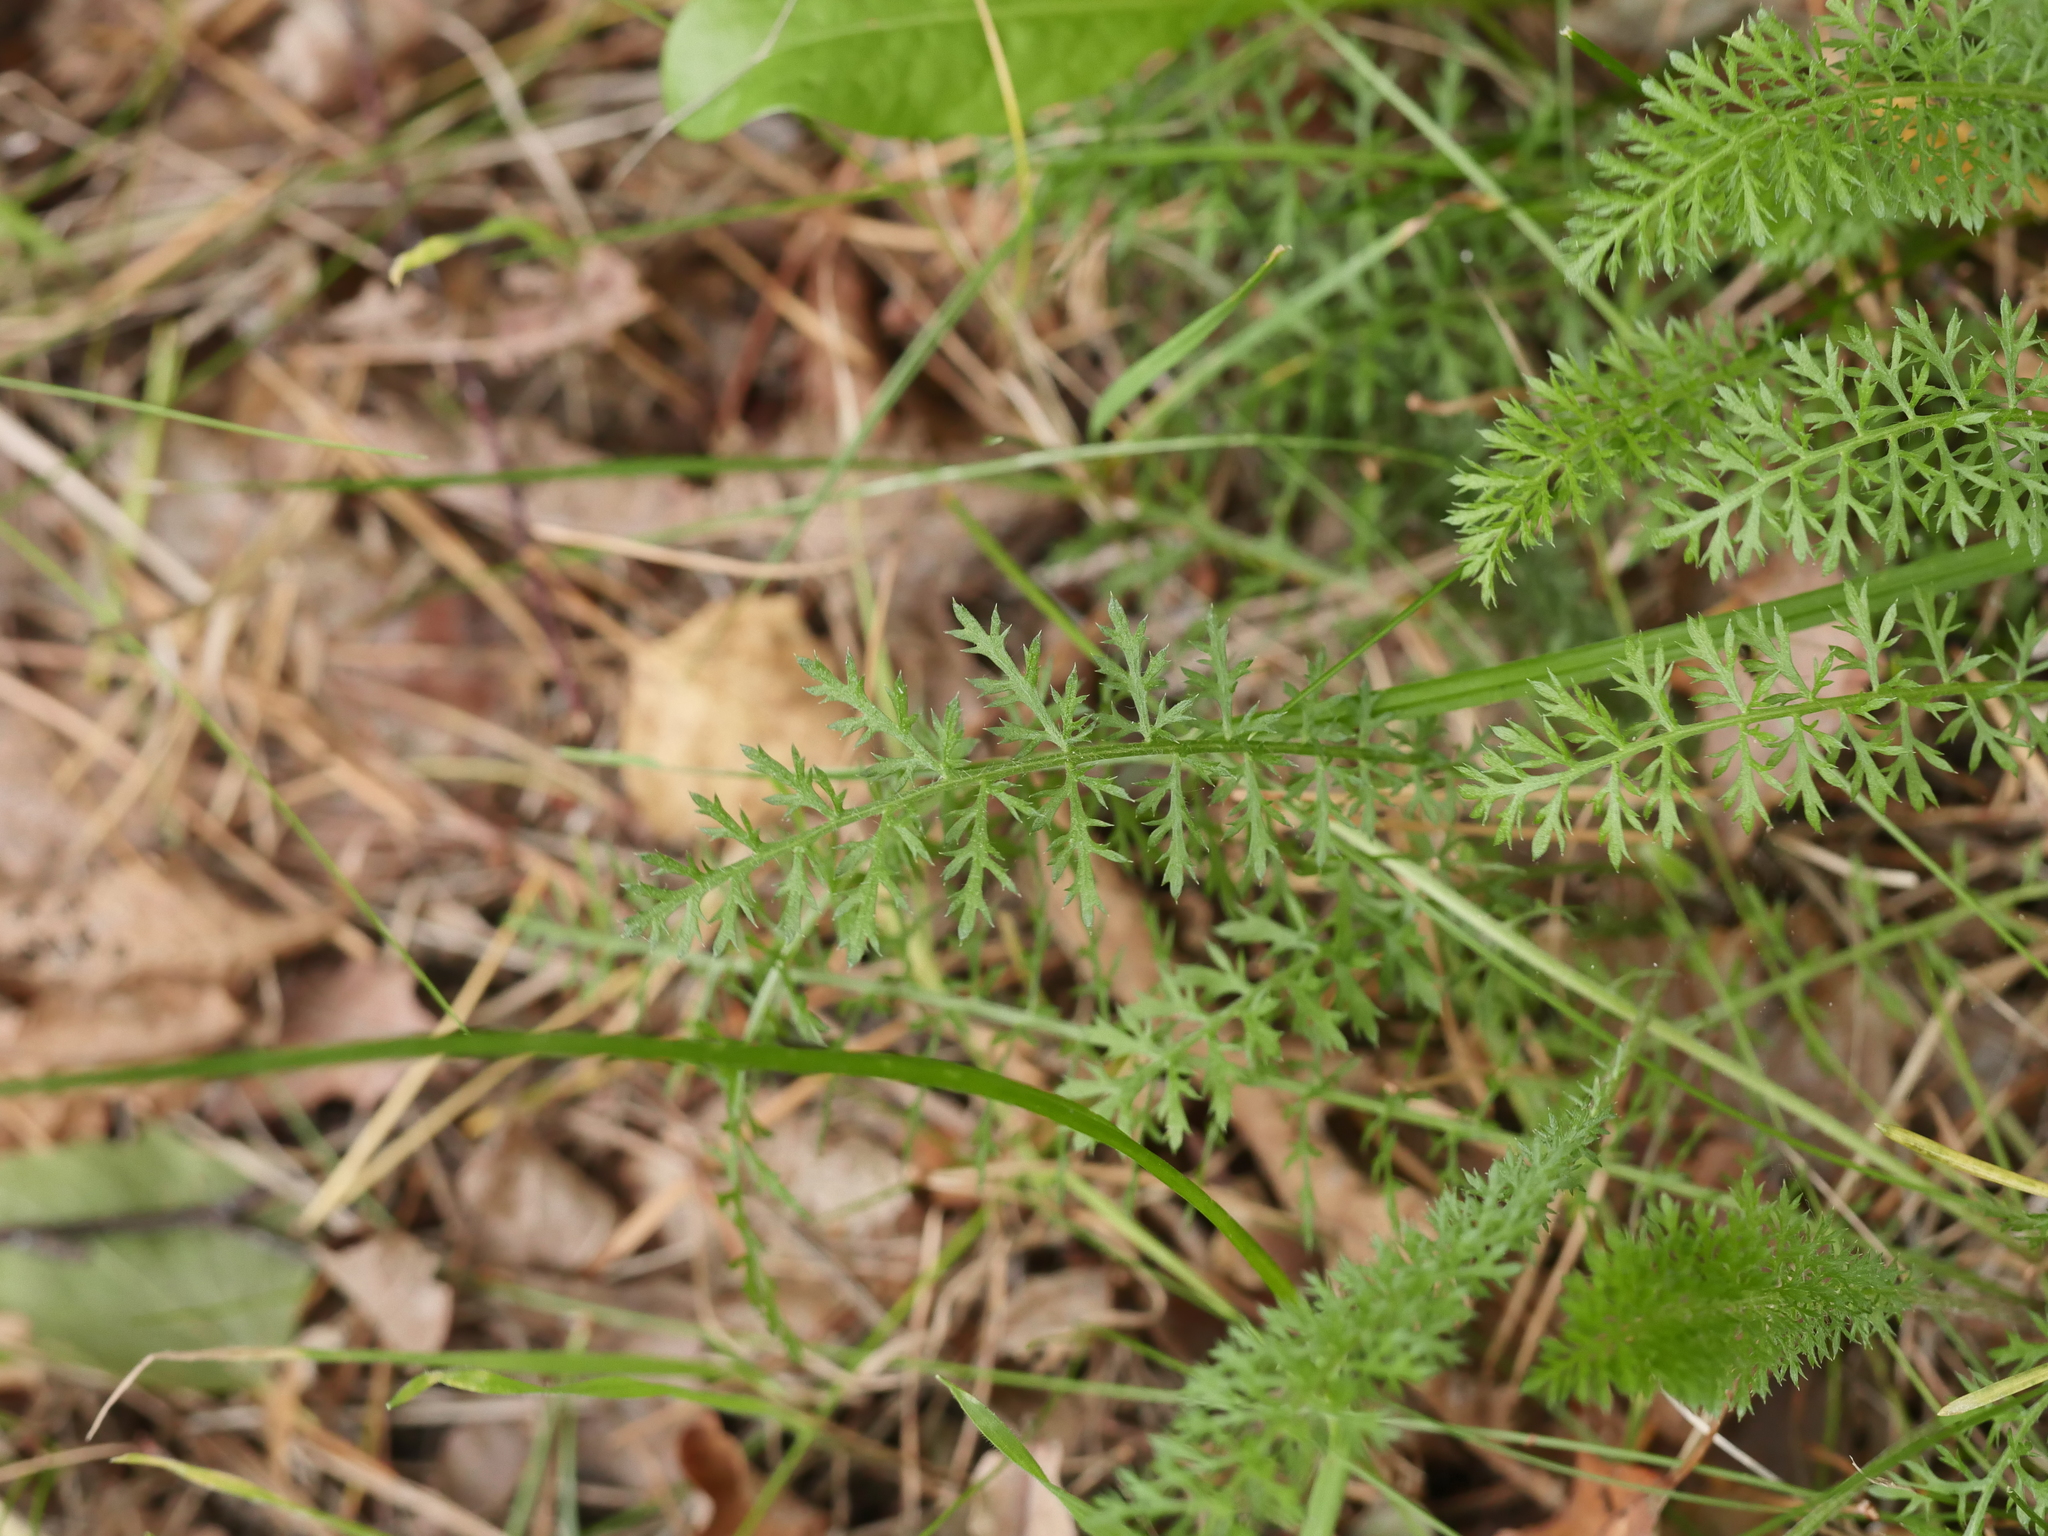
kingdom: Plantae
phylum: Tracheophyta
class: Magnoliopsida
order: Asterales
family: Asteraceae
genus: Achillea
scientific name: Achillea millefolium
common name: Yarrow
